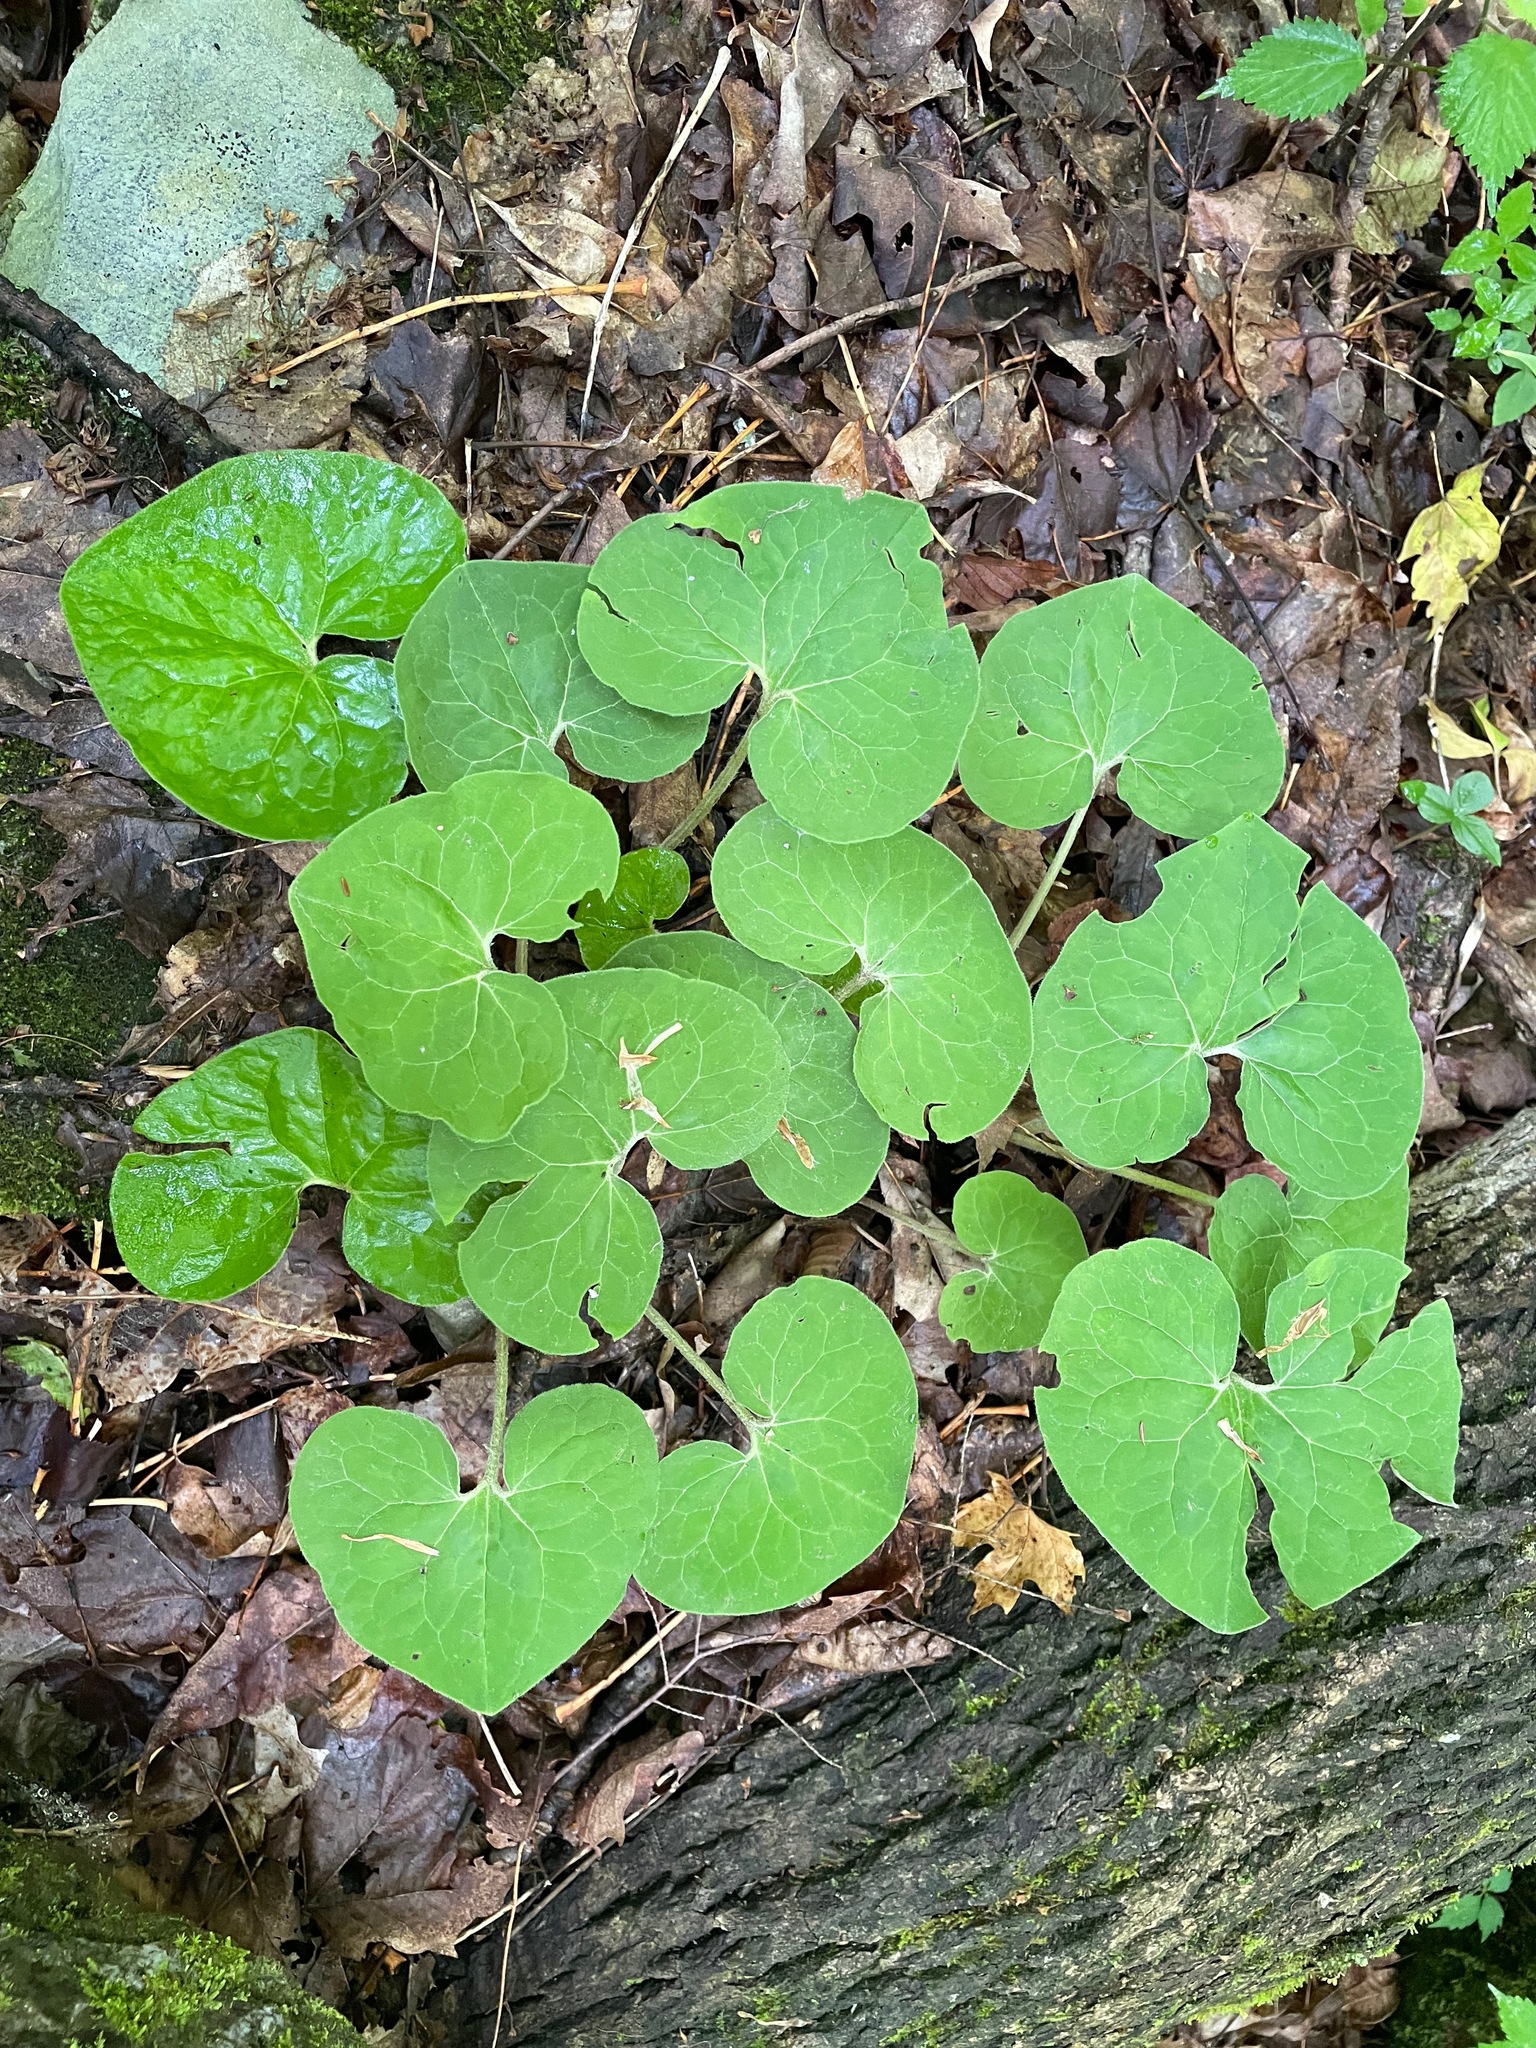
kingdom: Plantae
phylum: Tracheophyta
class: Magnoliopsida
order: Piperales
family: Aristolochiaceae
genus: Asarum
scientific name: Asarum canadense
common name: Wild ginger
